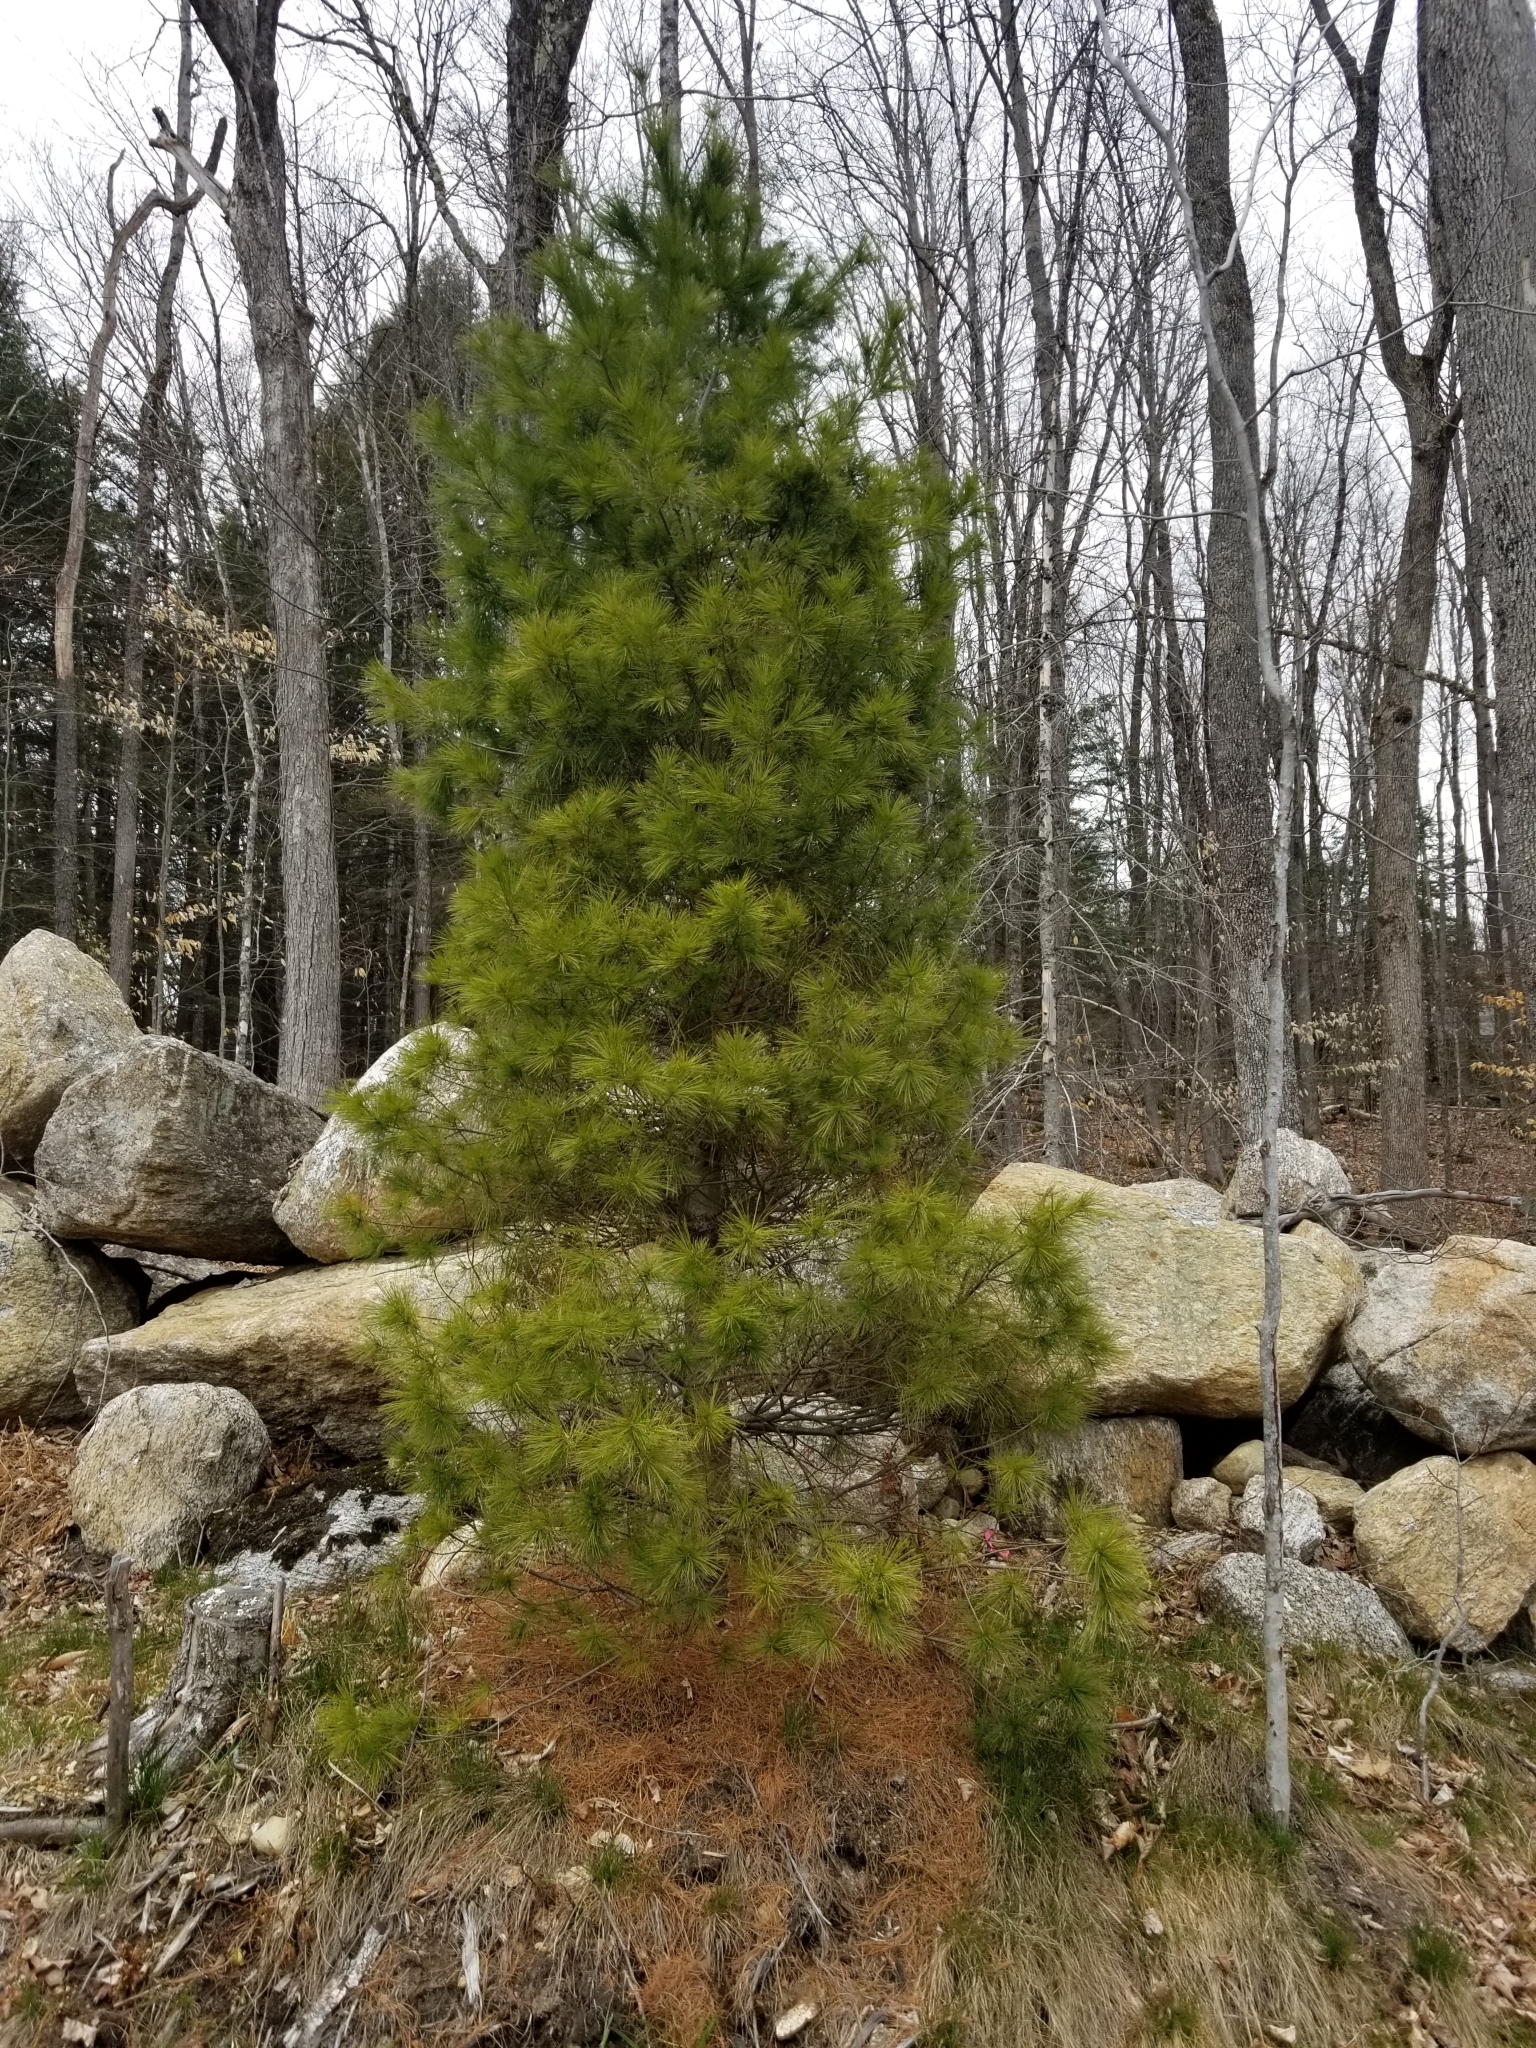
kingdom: Plantae
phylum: Tracheophyta
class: Pinopsida
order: Pinales
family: Pinaceae
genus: Pinus
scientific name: Pinus strobus
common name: Weymouth pine
